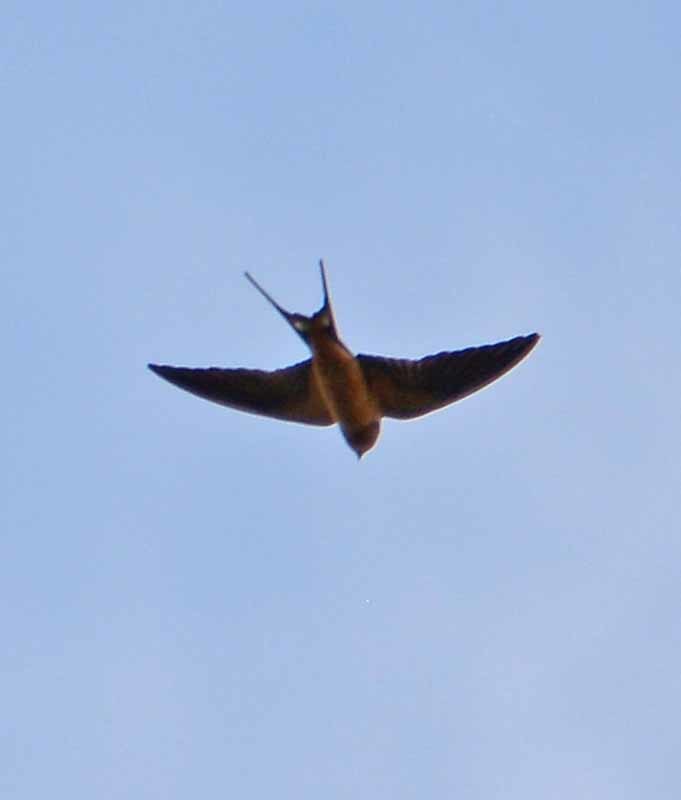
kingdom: Animalia
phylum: Chordata
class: Aves
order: Passeriformes
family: Hirundinidae
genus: Hirundo
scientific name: Hirundo rustica
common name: Barn swallow
